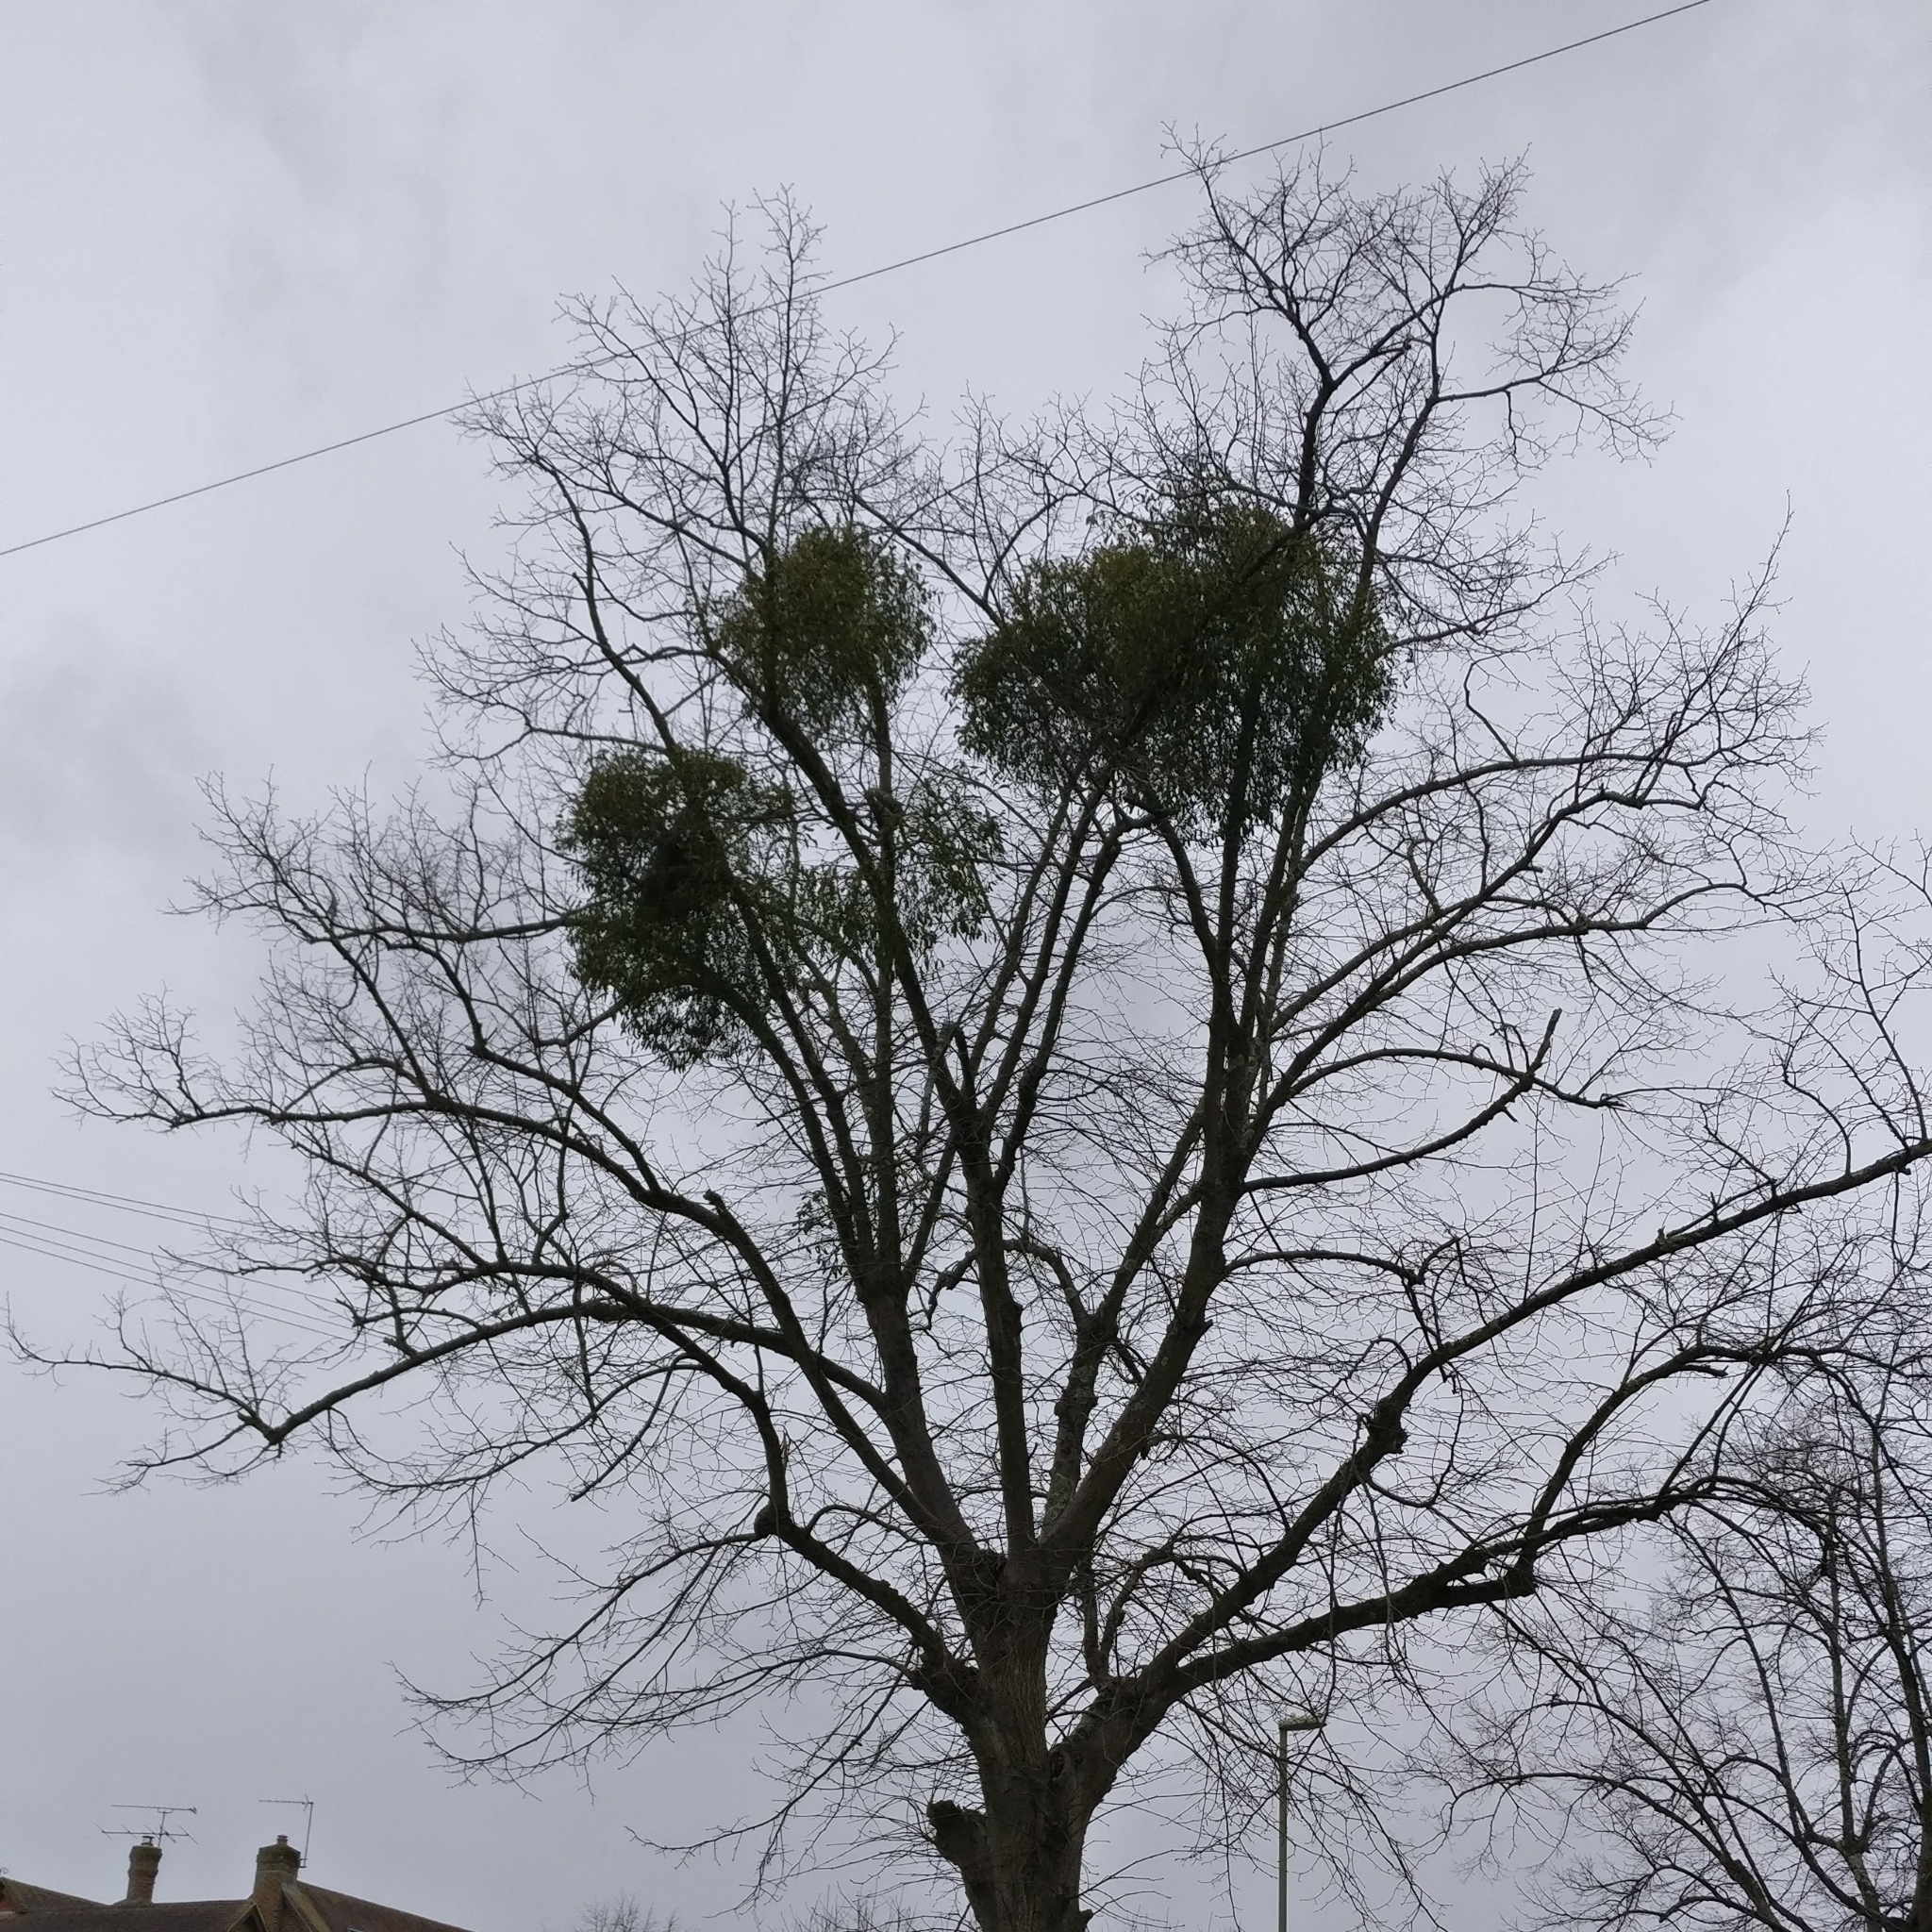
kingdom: Plantae
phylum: Tracheophyta
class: Magnoliopsida
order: Santalales
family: Viscaceae
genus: Viscum
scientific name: Viscum album
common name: Mistletoe
